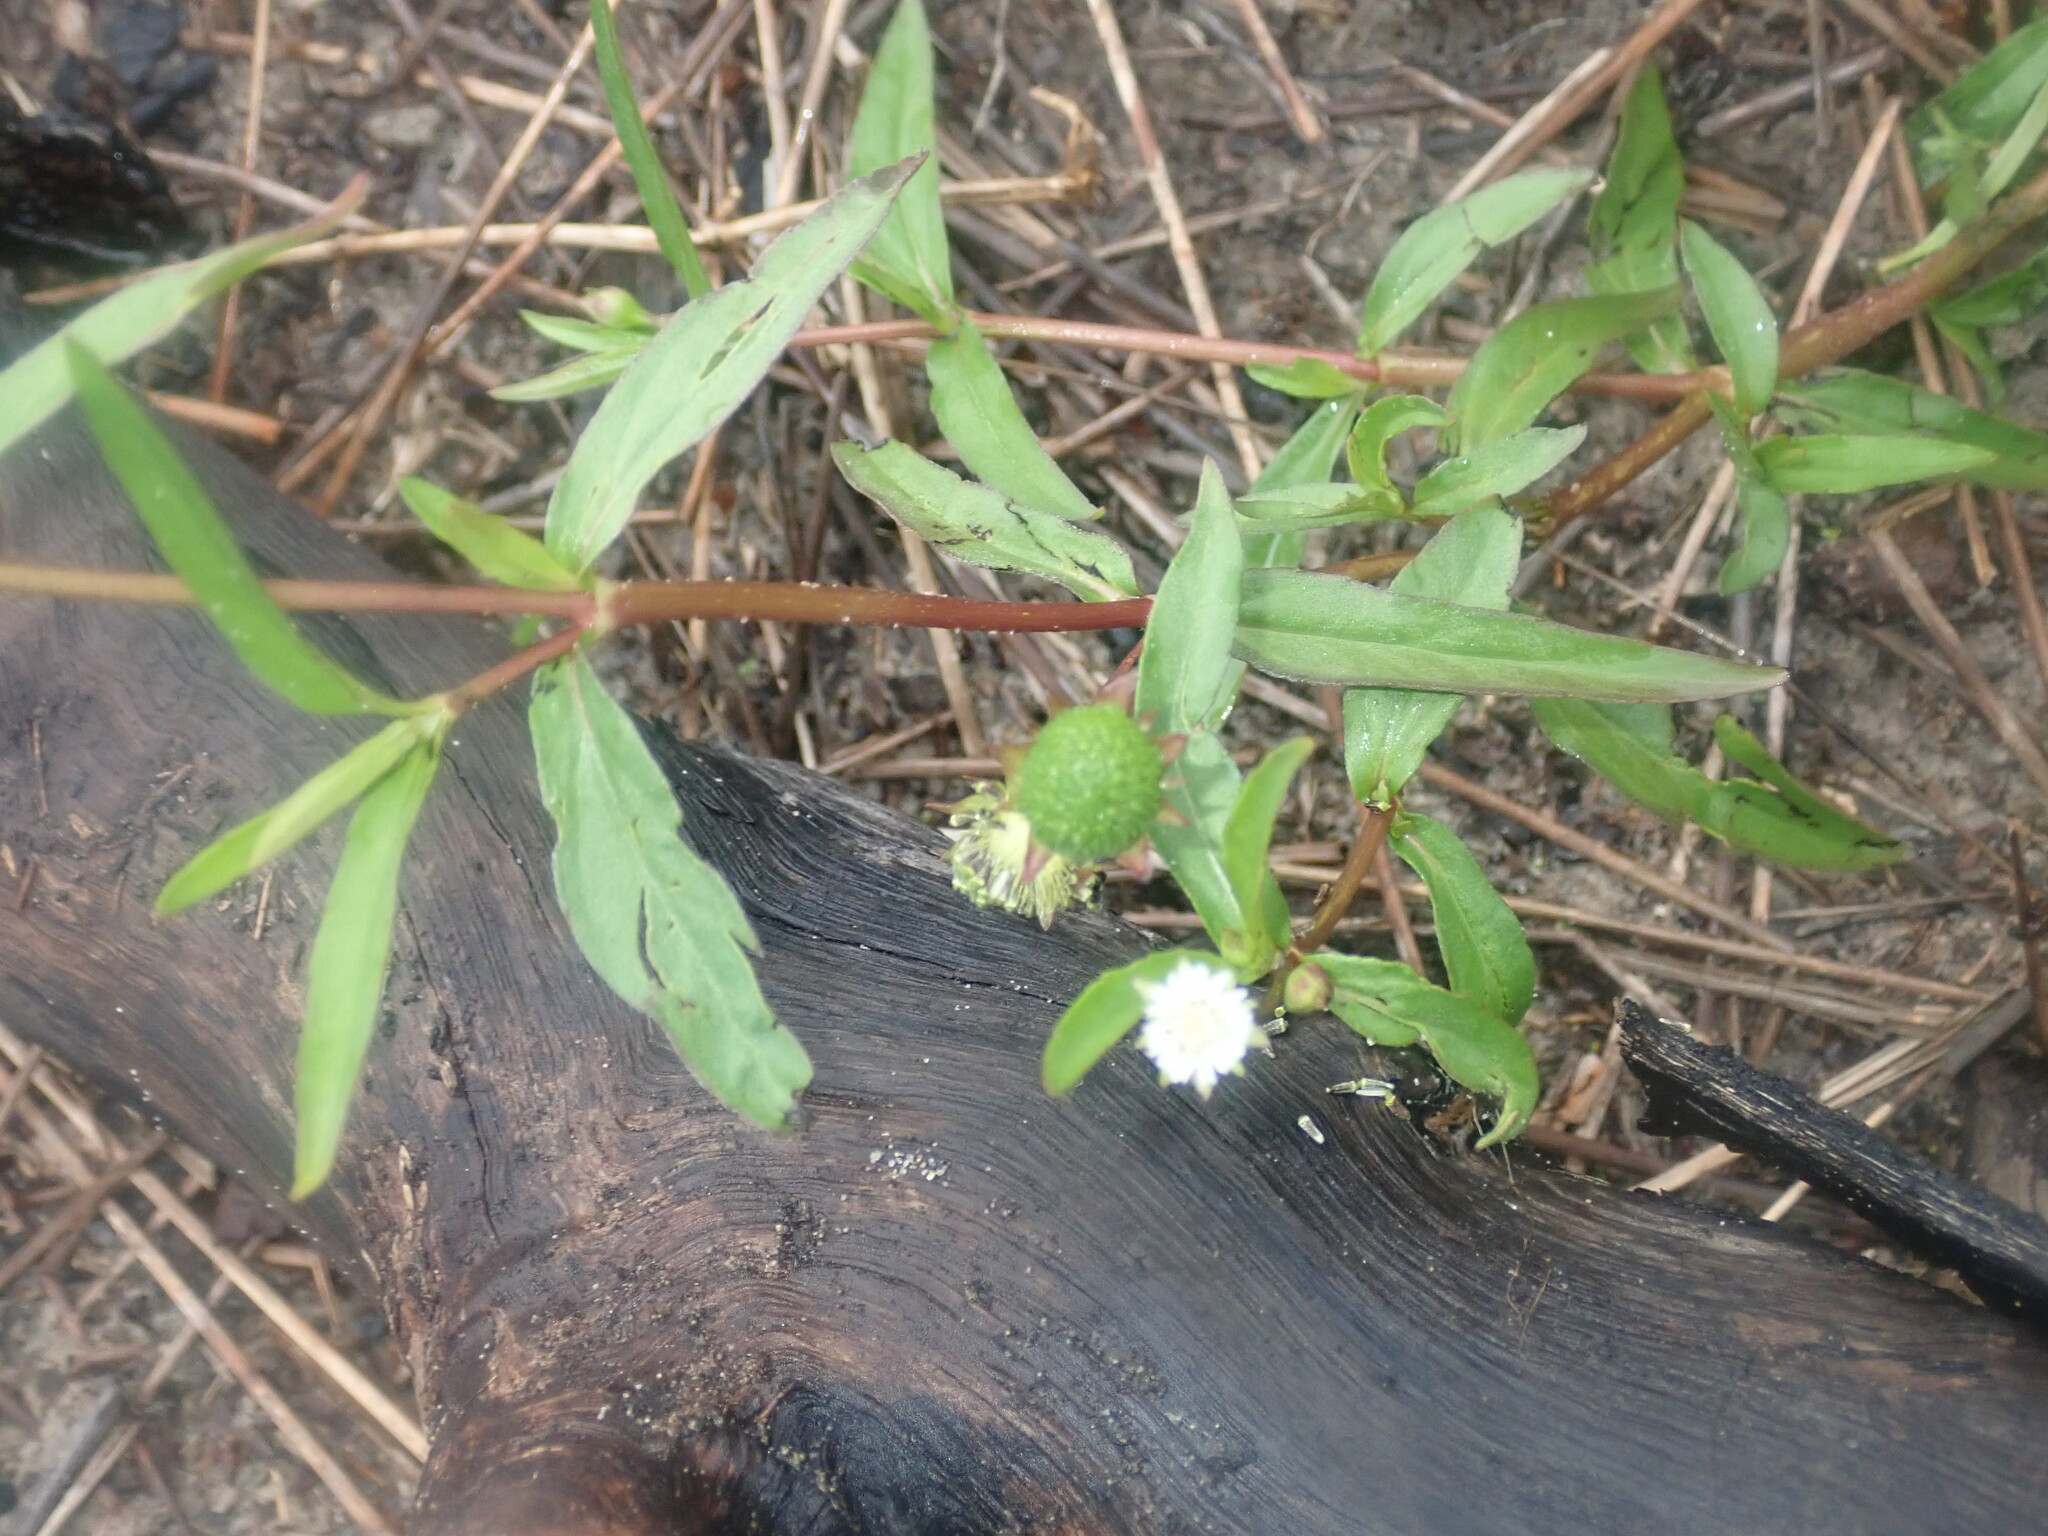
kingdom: Plantae
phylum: Tracheophyta
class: Magnoliopsida
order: Asterales
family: Asteraceae
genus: Eclipta
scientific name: Eclipta prostrata
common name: False daisy
